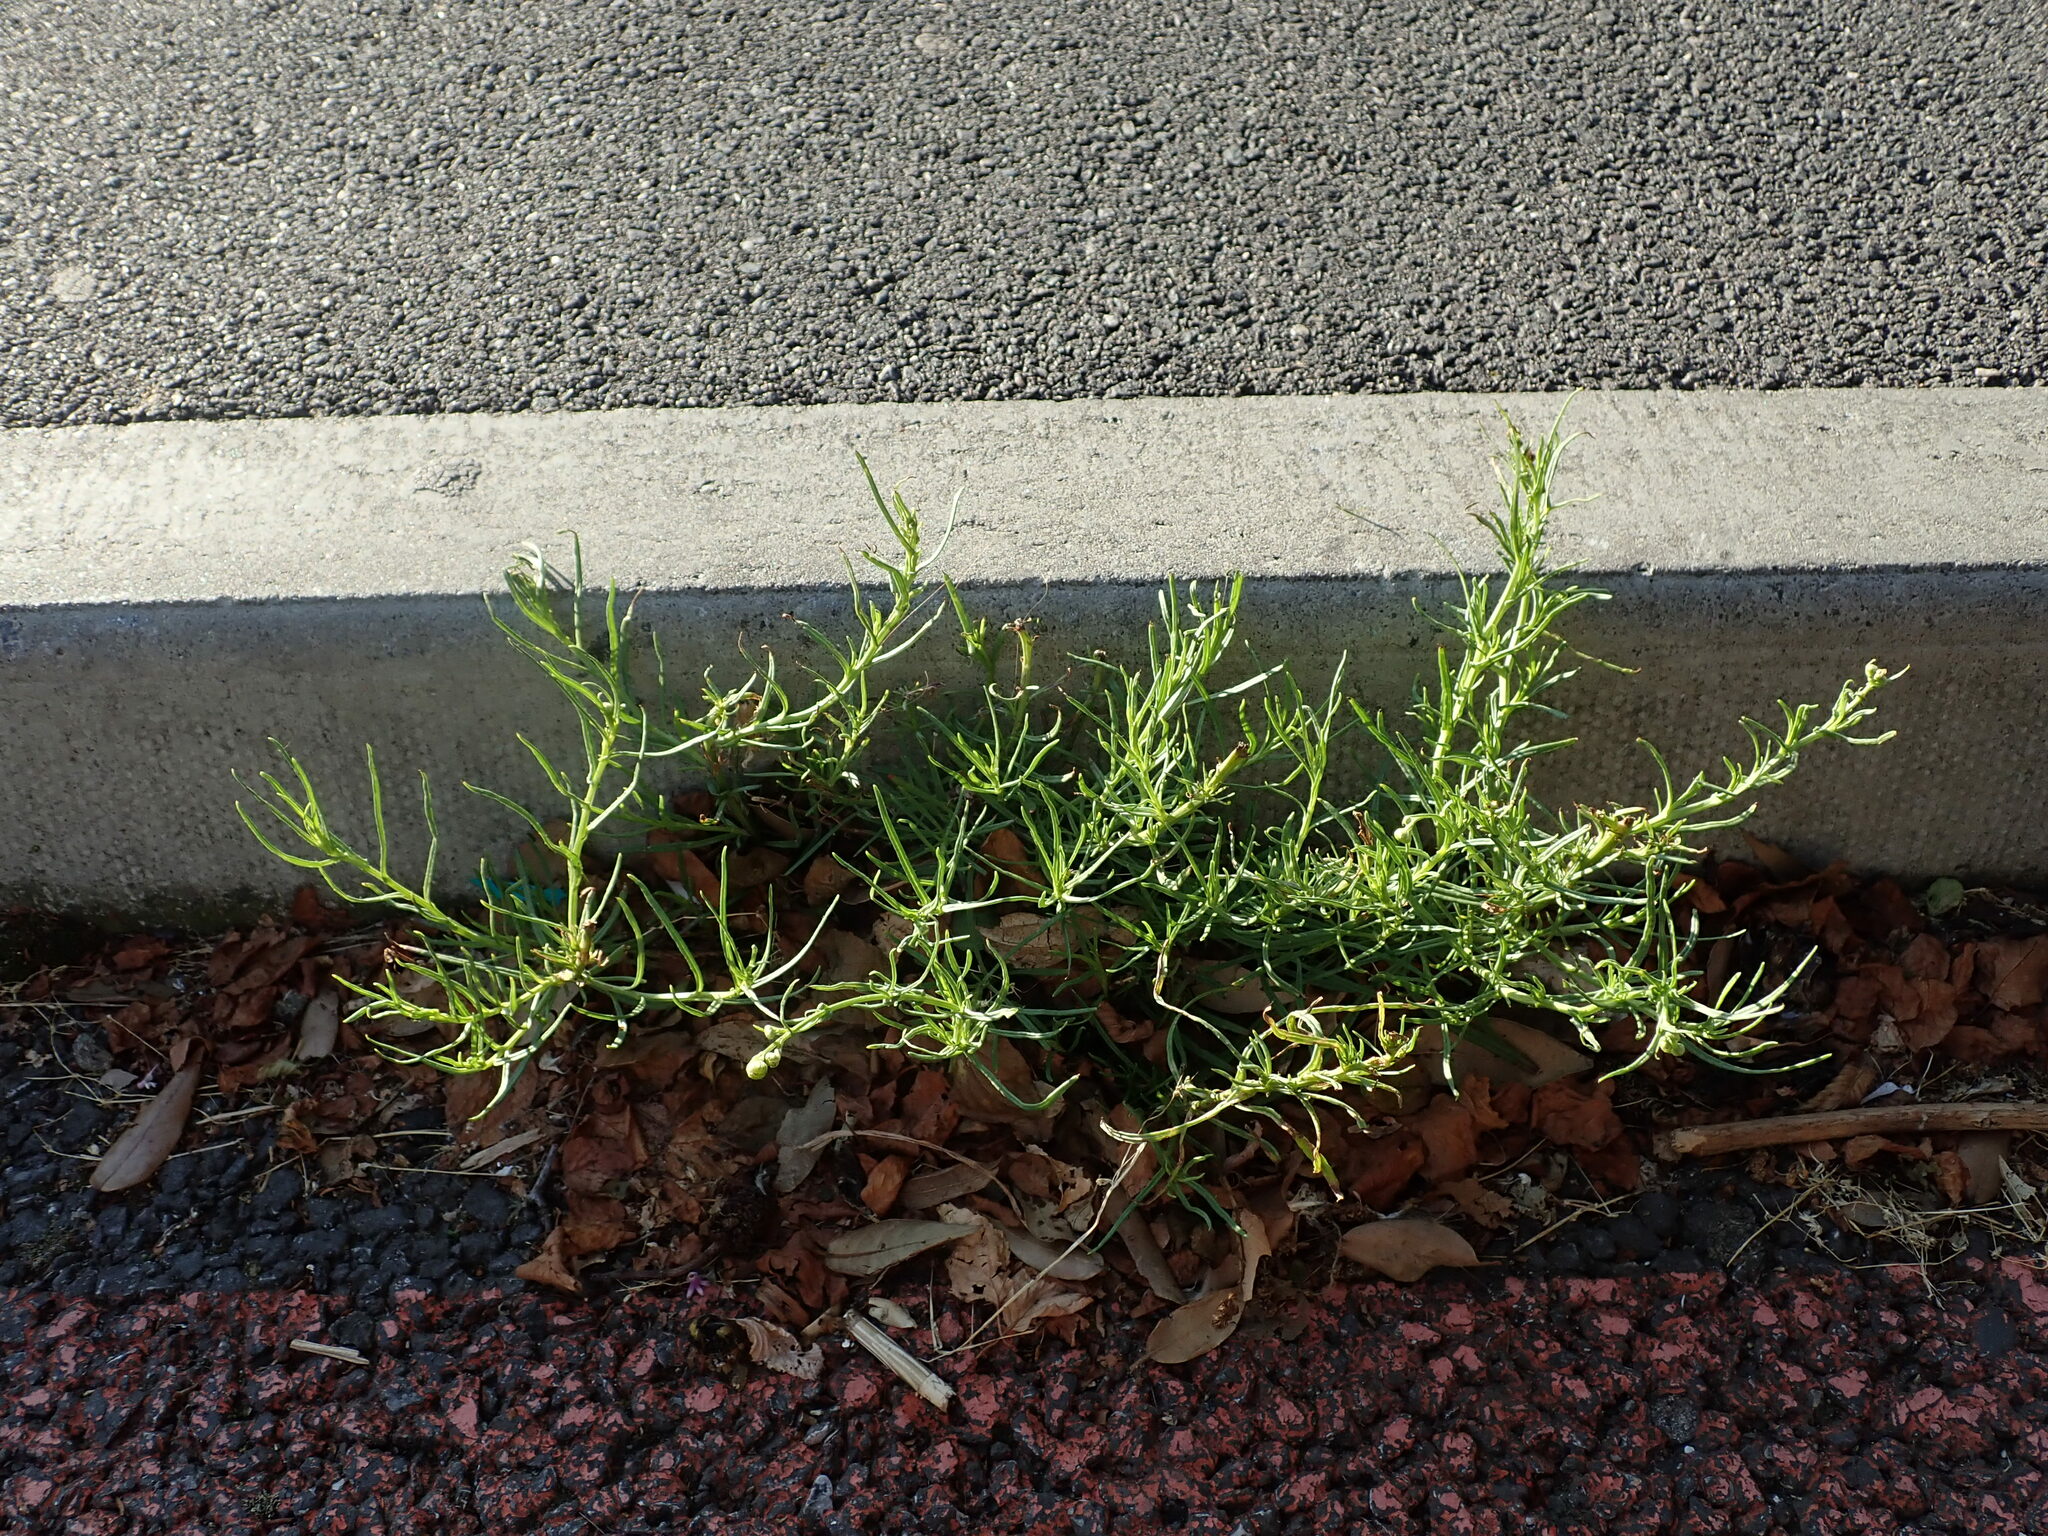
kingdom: Plantae
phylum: Tracheophyta
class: Magnoliopsida
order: Asterales
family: Asteraceae
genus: Senecio
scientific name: Senecio inaequidens
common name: Narrow-leaved ragwort
